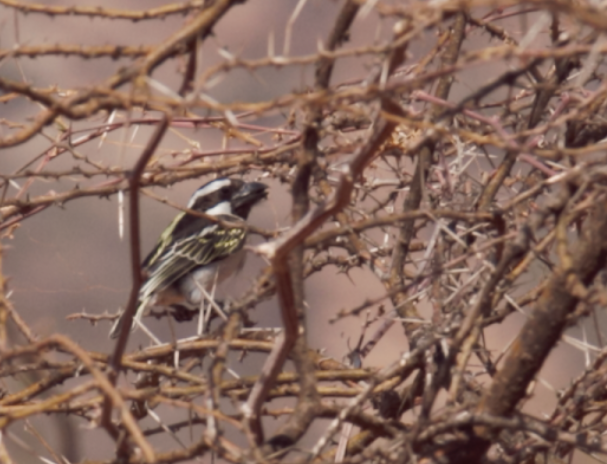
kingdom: Animalia
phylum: Chordata
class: Aves
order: Piciformes
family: Lybiidae
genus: Tricholaema
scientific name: Tricholaema melanocephala
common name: Black-throated barbet
